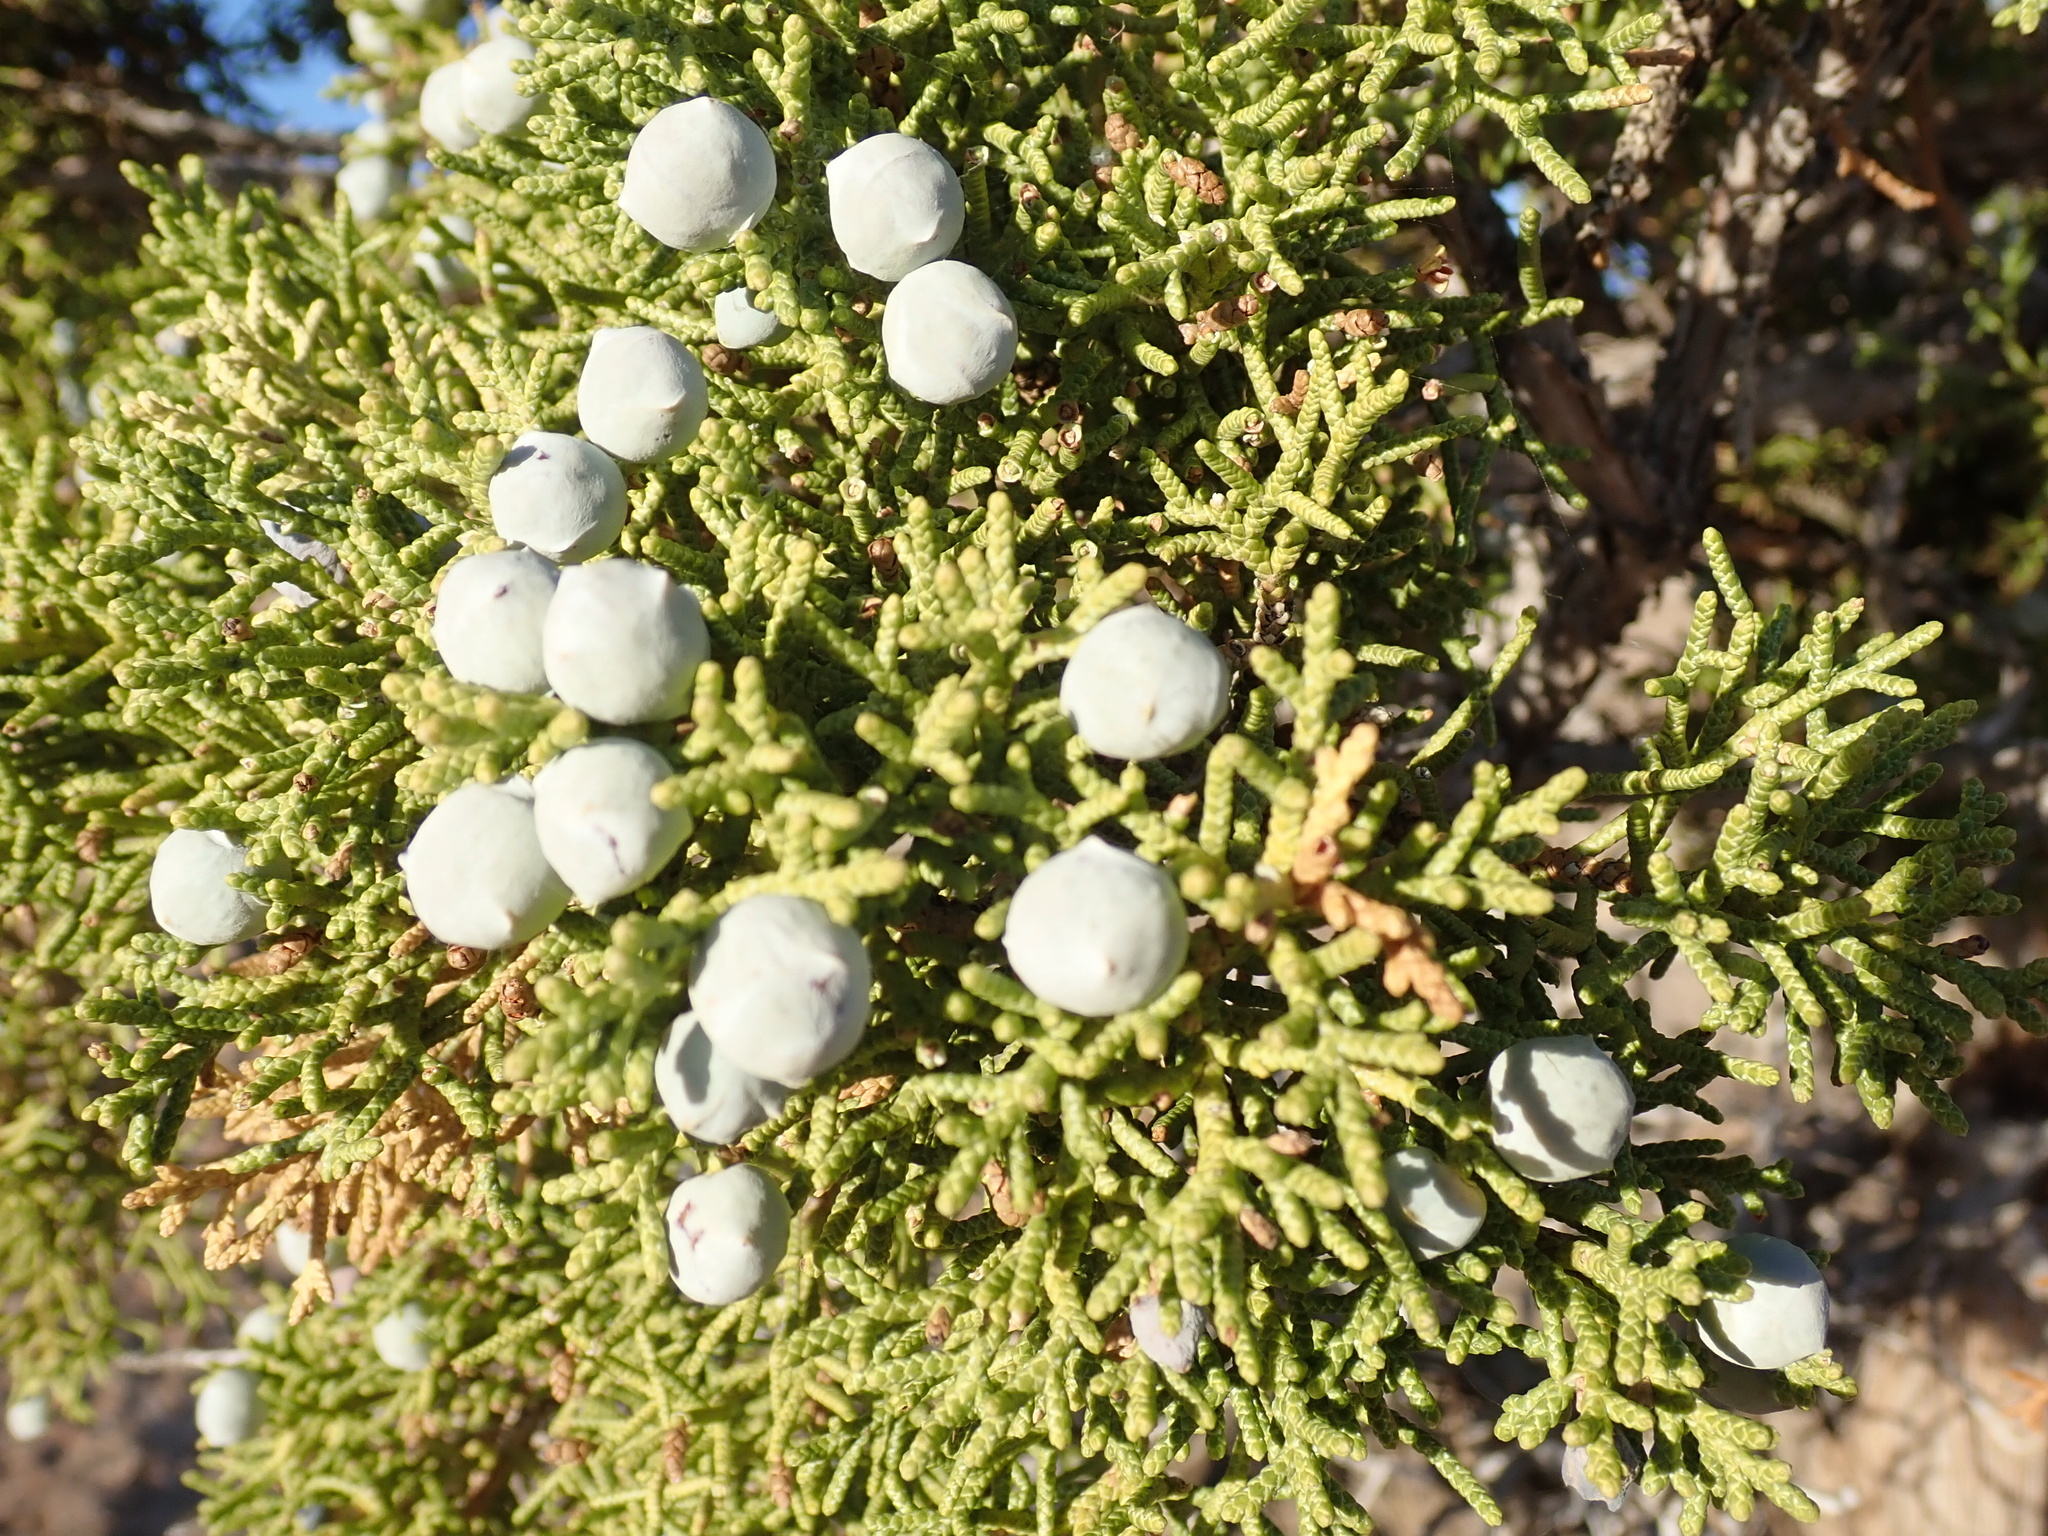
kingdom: Plantae
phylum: Tracheophyta
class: Pinopsida
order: Pinales
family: Cupressaceae
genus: Juniperus
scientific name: Juniperus osteosperma
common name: Utah juniper
